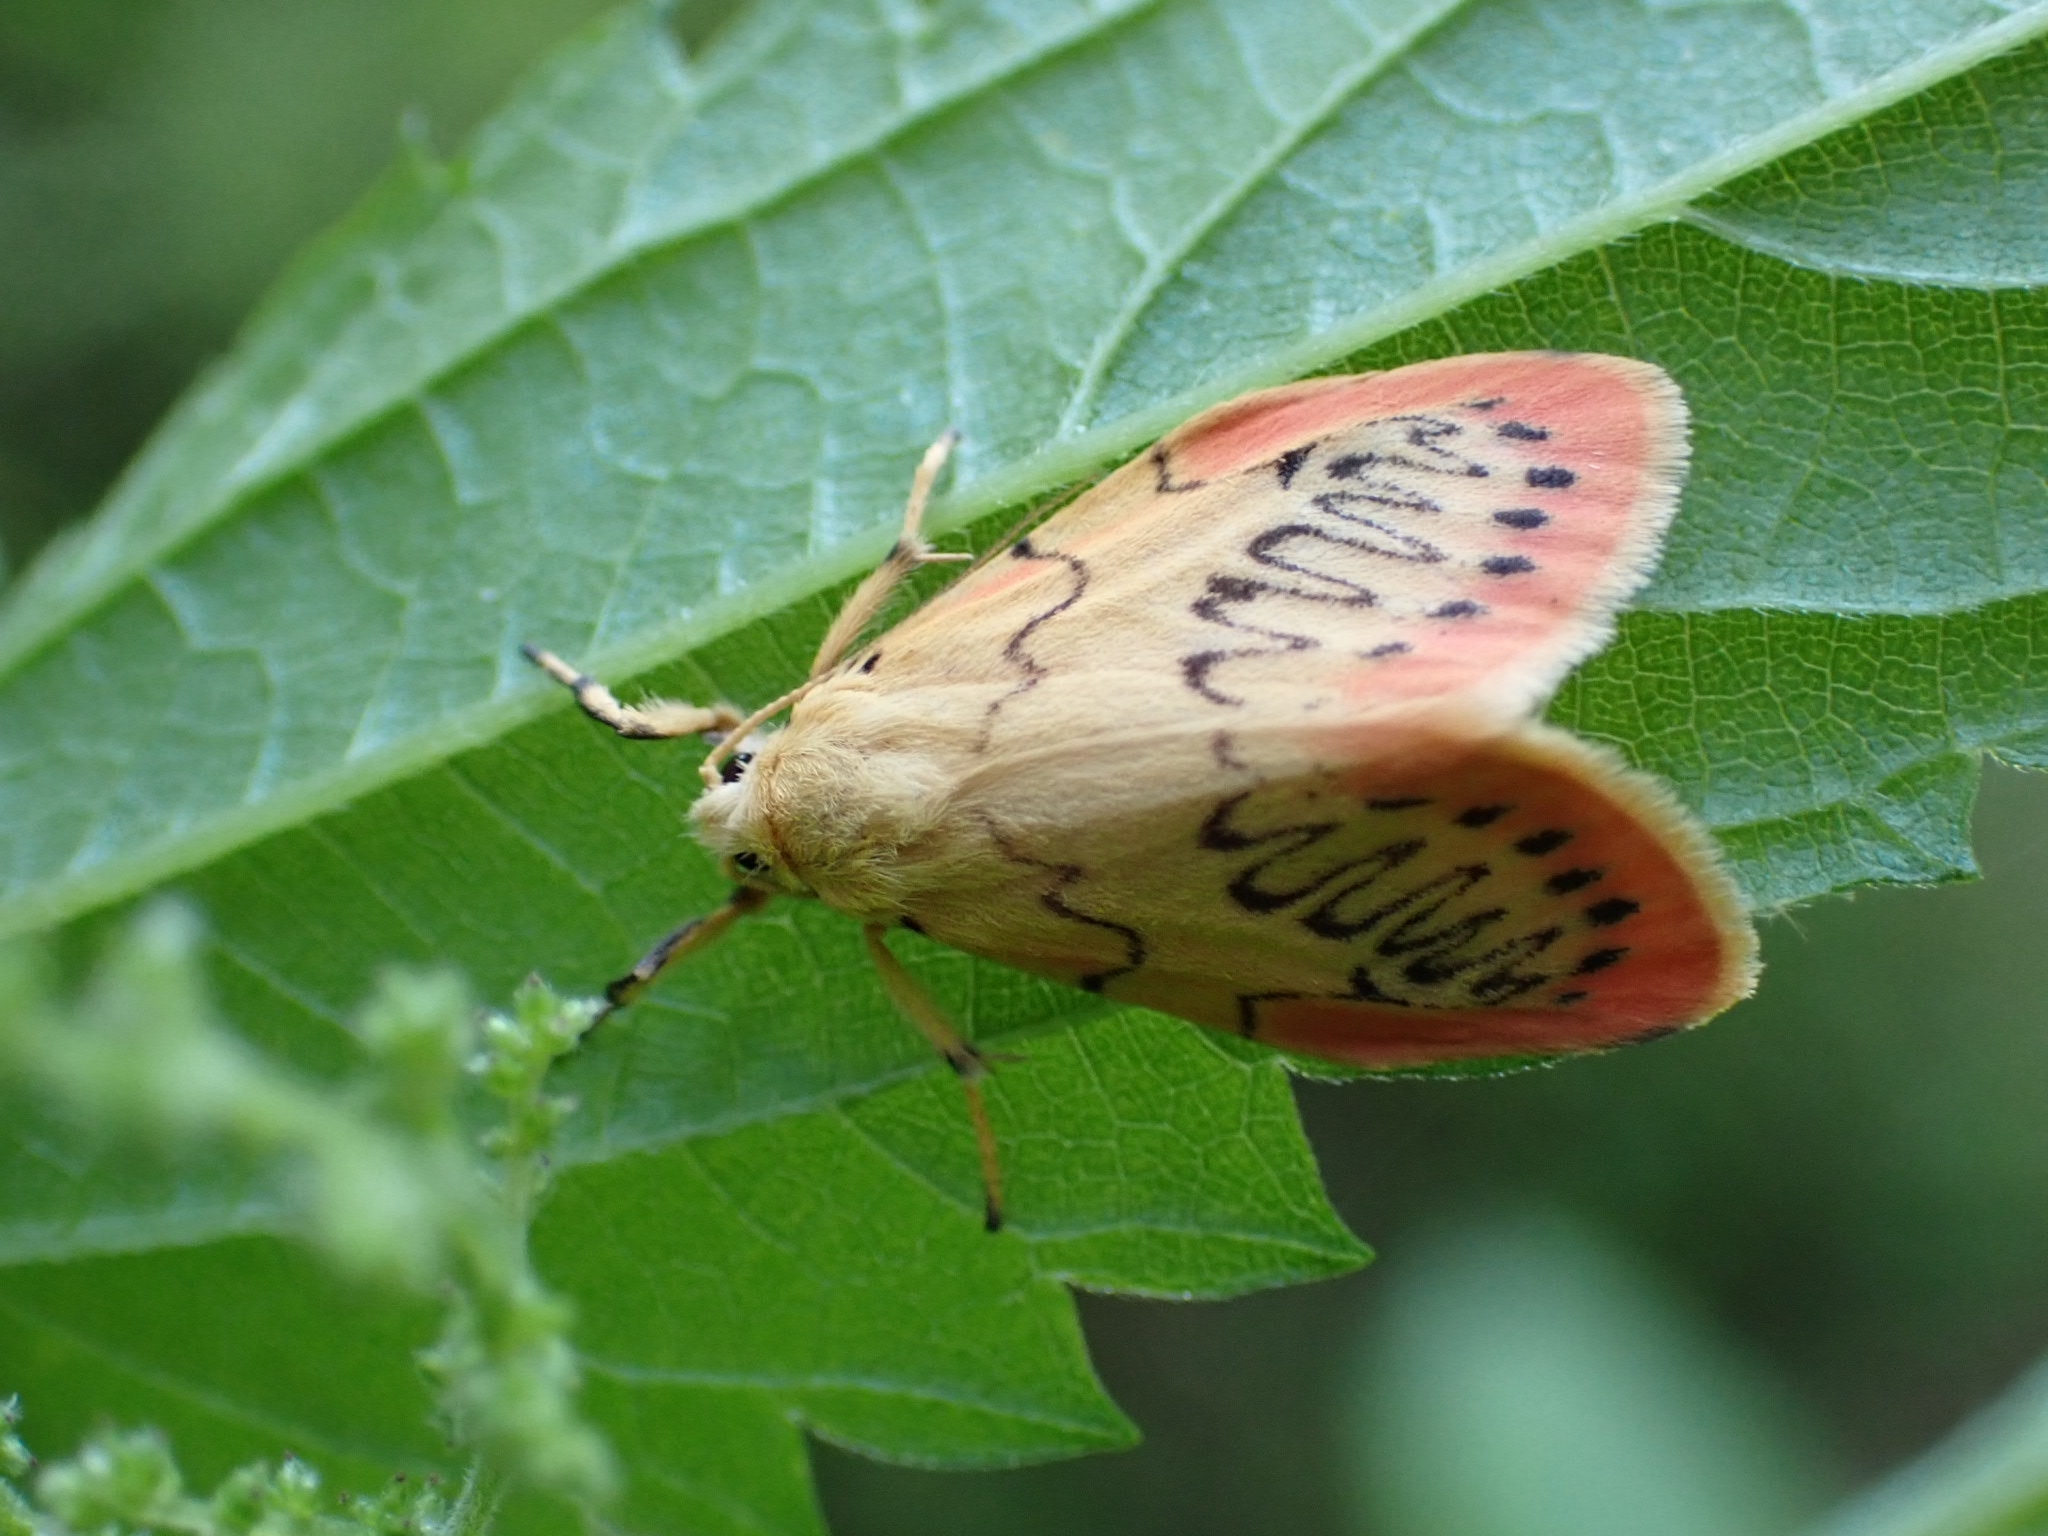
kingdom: Animalia
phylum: Arthropoda
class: Insecta
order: Lepidoptera
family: Erebidae
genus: Miltochrista
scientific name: Miltochrista miniata
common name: Rosy footman
